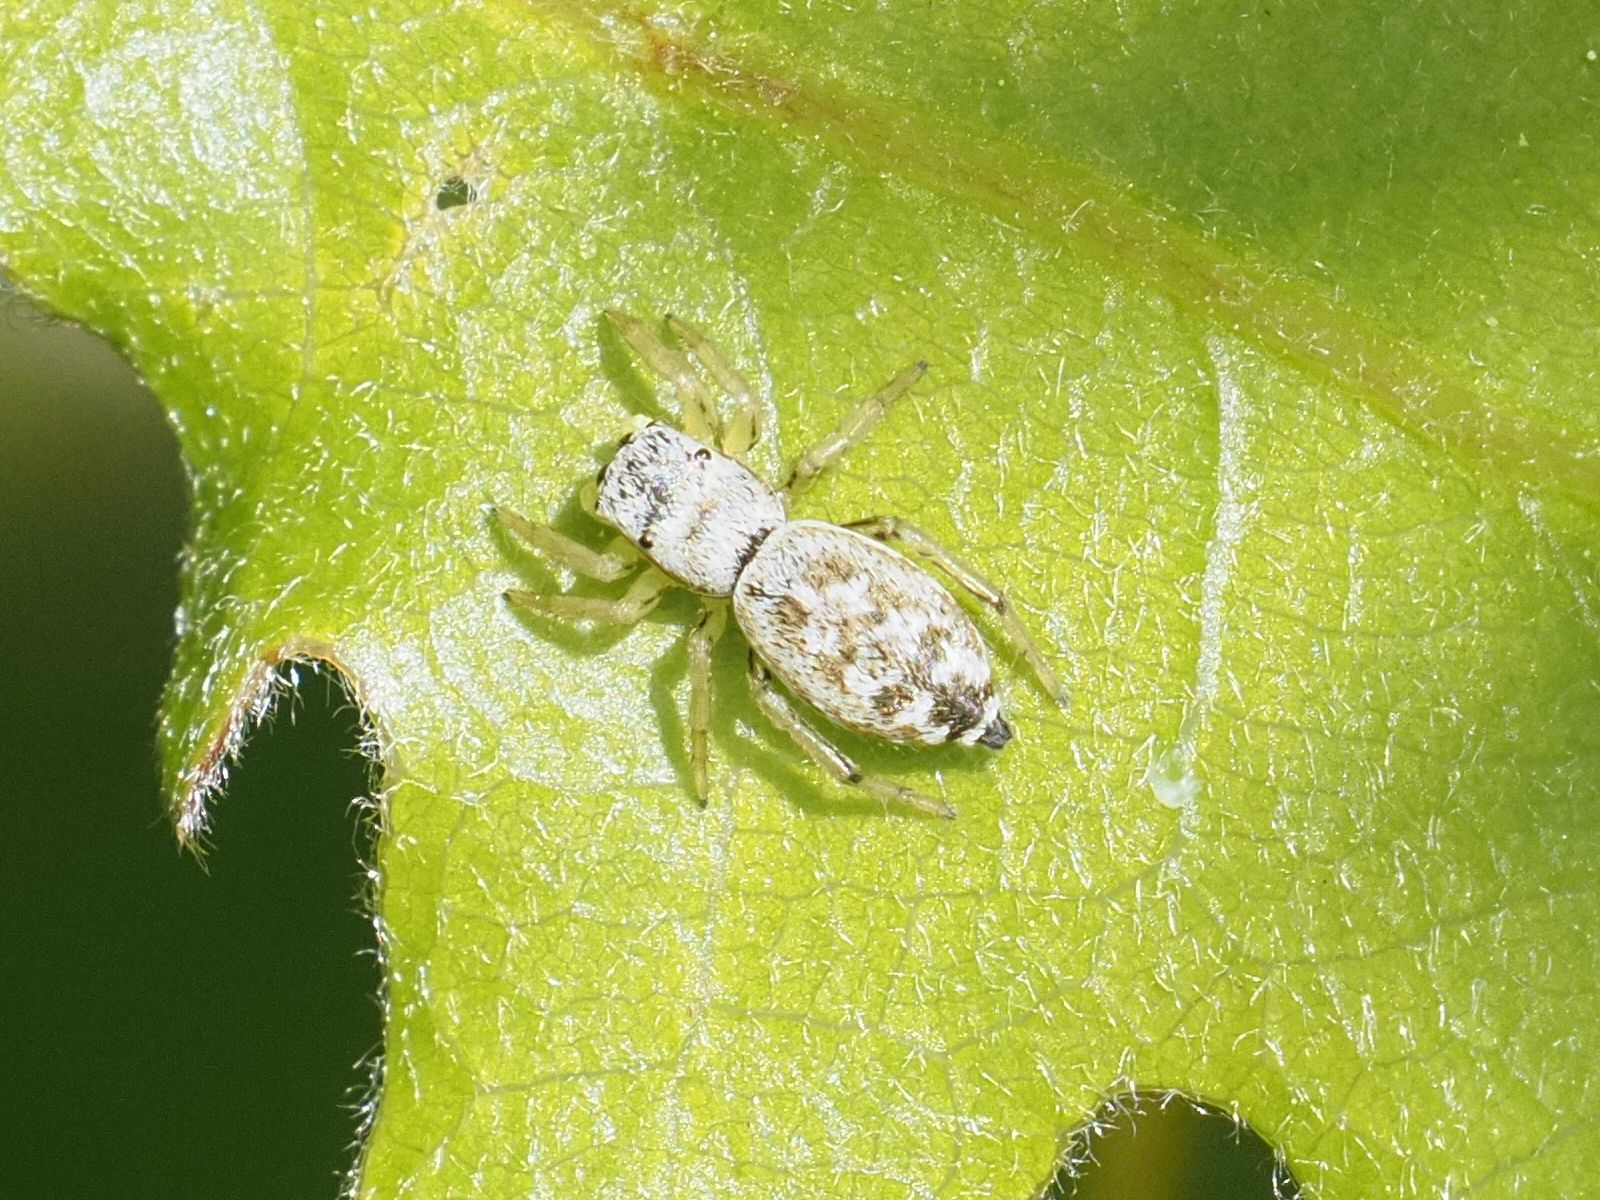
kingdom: Animalia
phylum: Arthropoda
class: Arachnida
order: Araneae
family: Salticidae
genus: Heliophanus
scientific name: Heliophanus simplex
